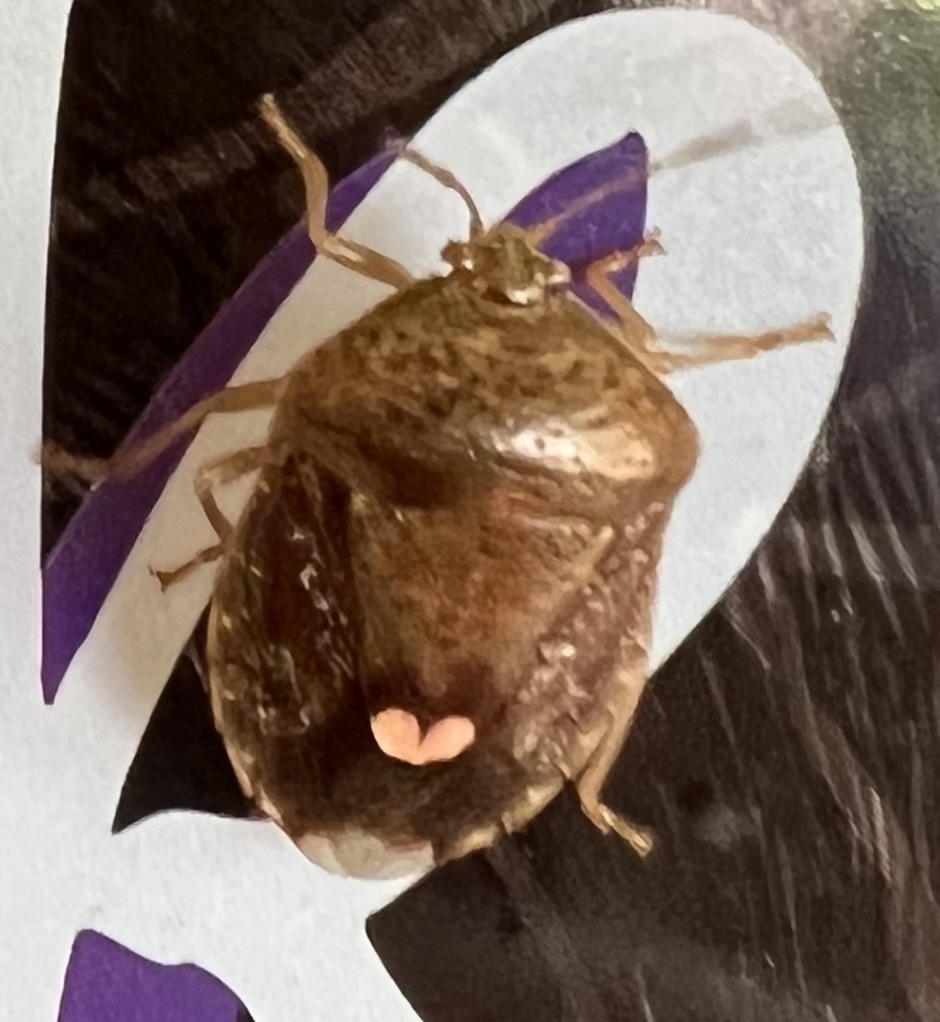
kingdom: Animalia
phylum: Arthropoda
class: Insecta
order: Hemiptera
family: Pentatomidae
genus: Edessa
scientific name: Edessa bifida
